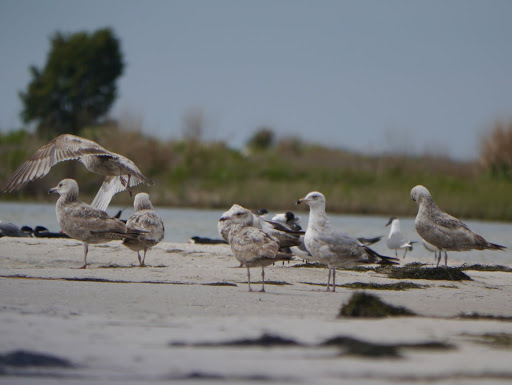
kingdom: Animalia
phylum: Chordata
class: Aves
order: Charadriiformes
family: Laridae
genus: Larus
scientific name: Larus argentatus
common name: Herring gull
